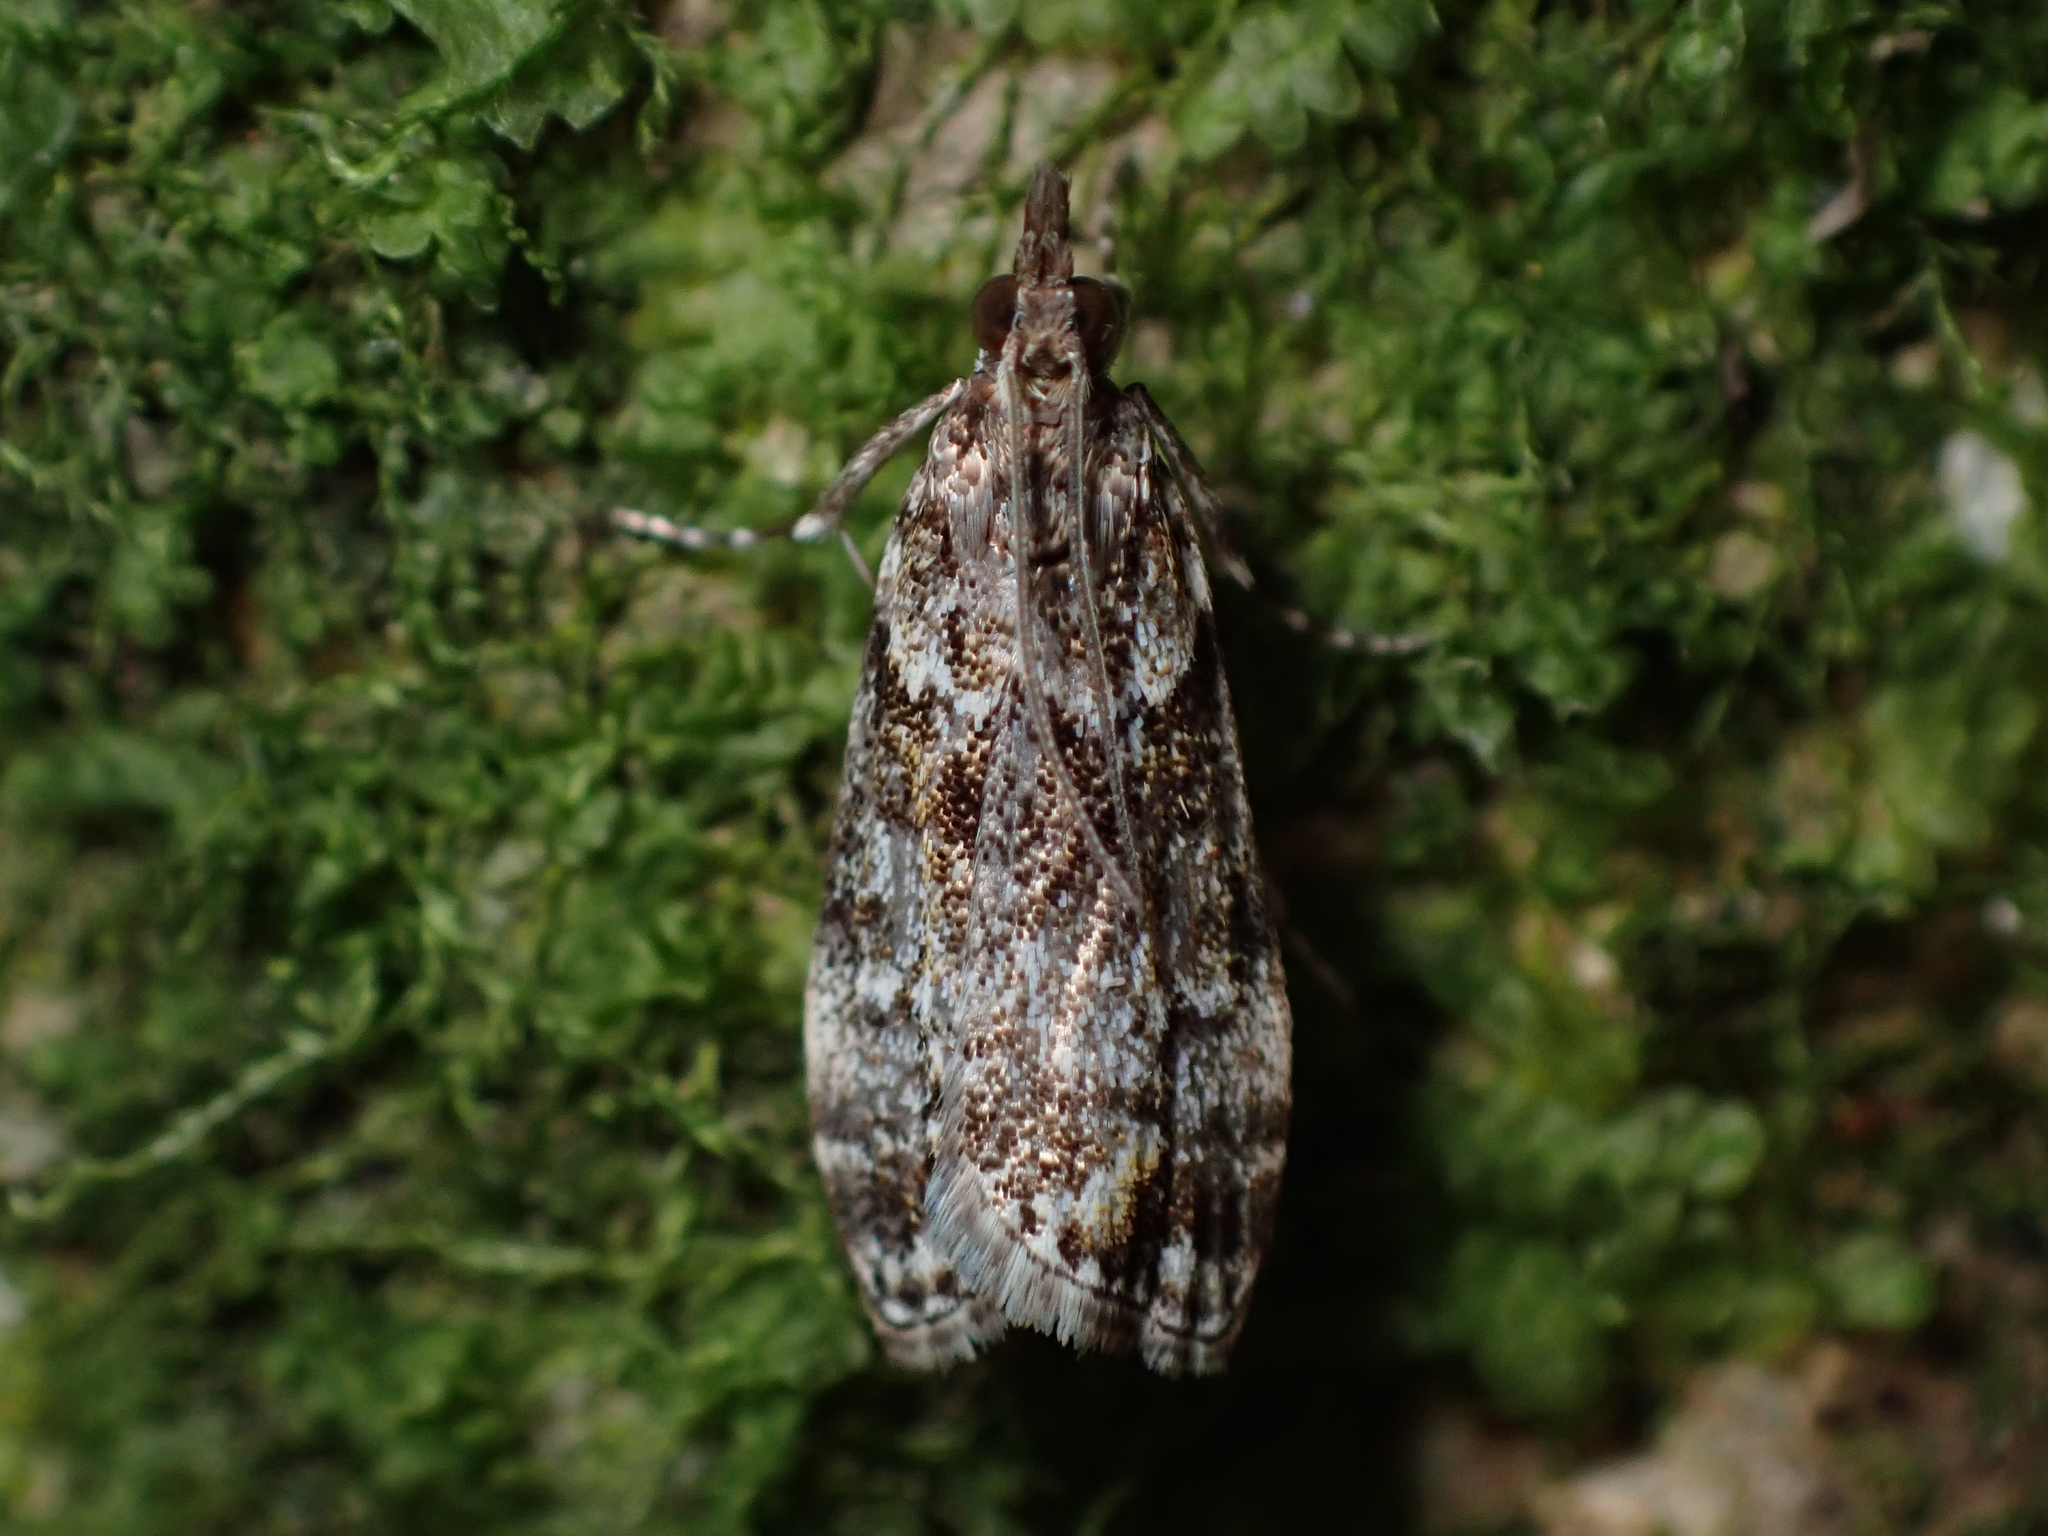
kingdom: Animalia
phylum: Arthropoda
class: Insecta
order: Lepidoptera
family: Crambidae
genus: Eudonia
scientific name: Eudonia minualis
